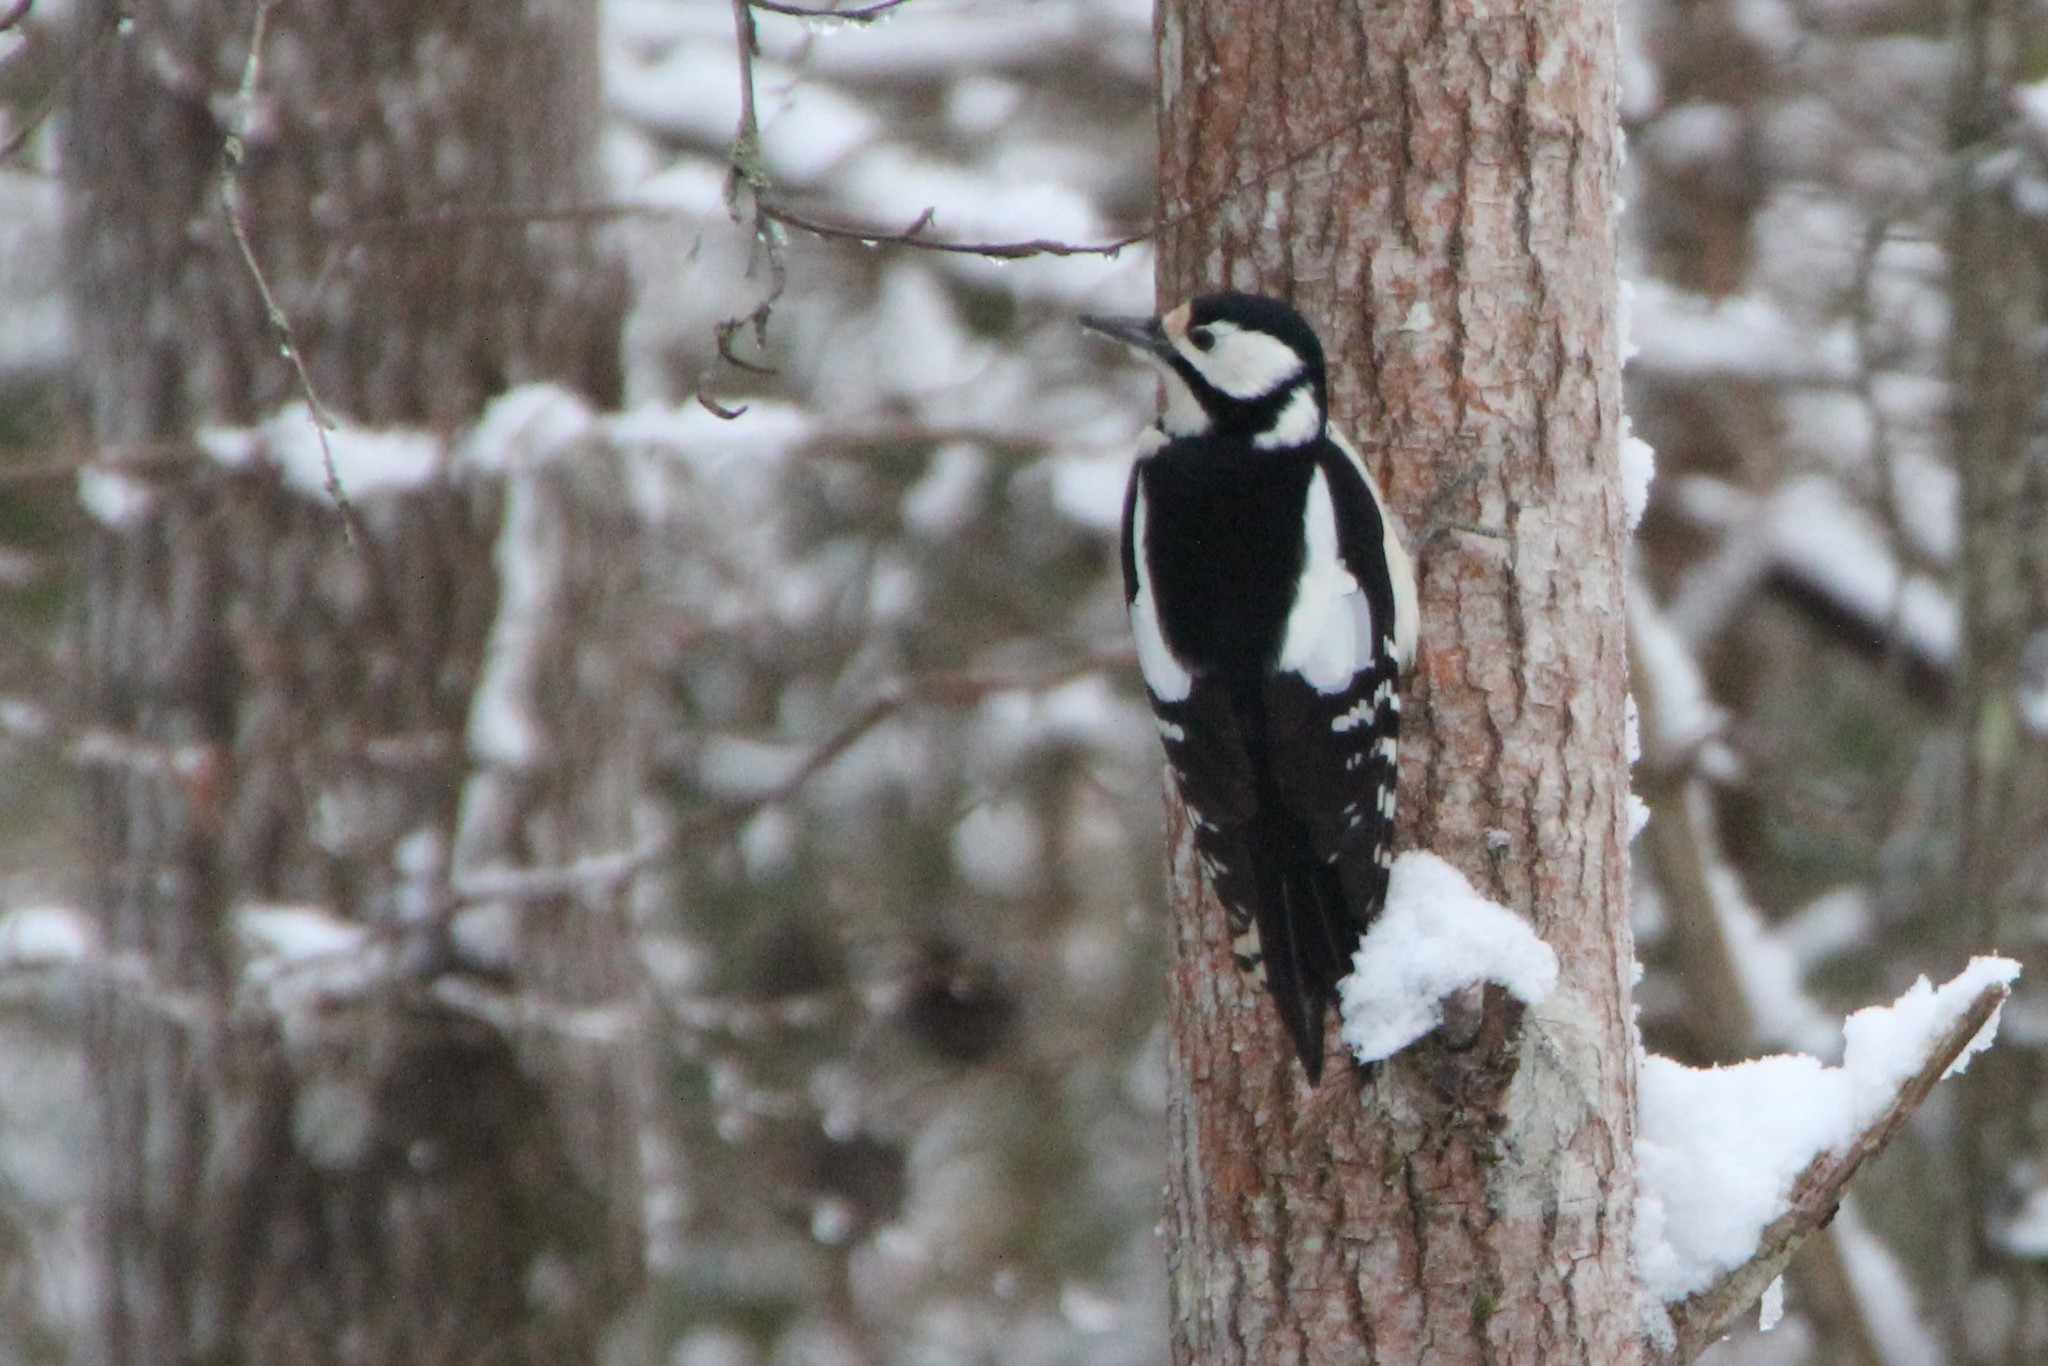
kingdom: Animalia
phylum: Chordata
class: Aves
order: Piciformes
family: Picidae
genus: Dendrocopos
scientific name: Dendrocopos major
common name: Great spotted woodpecker
